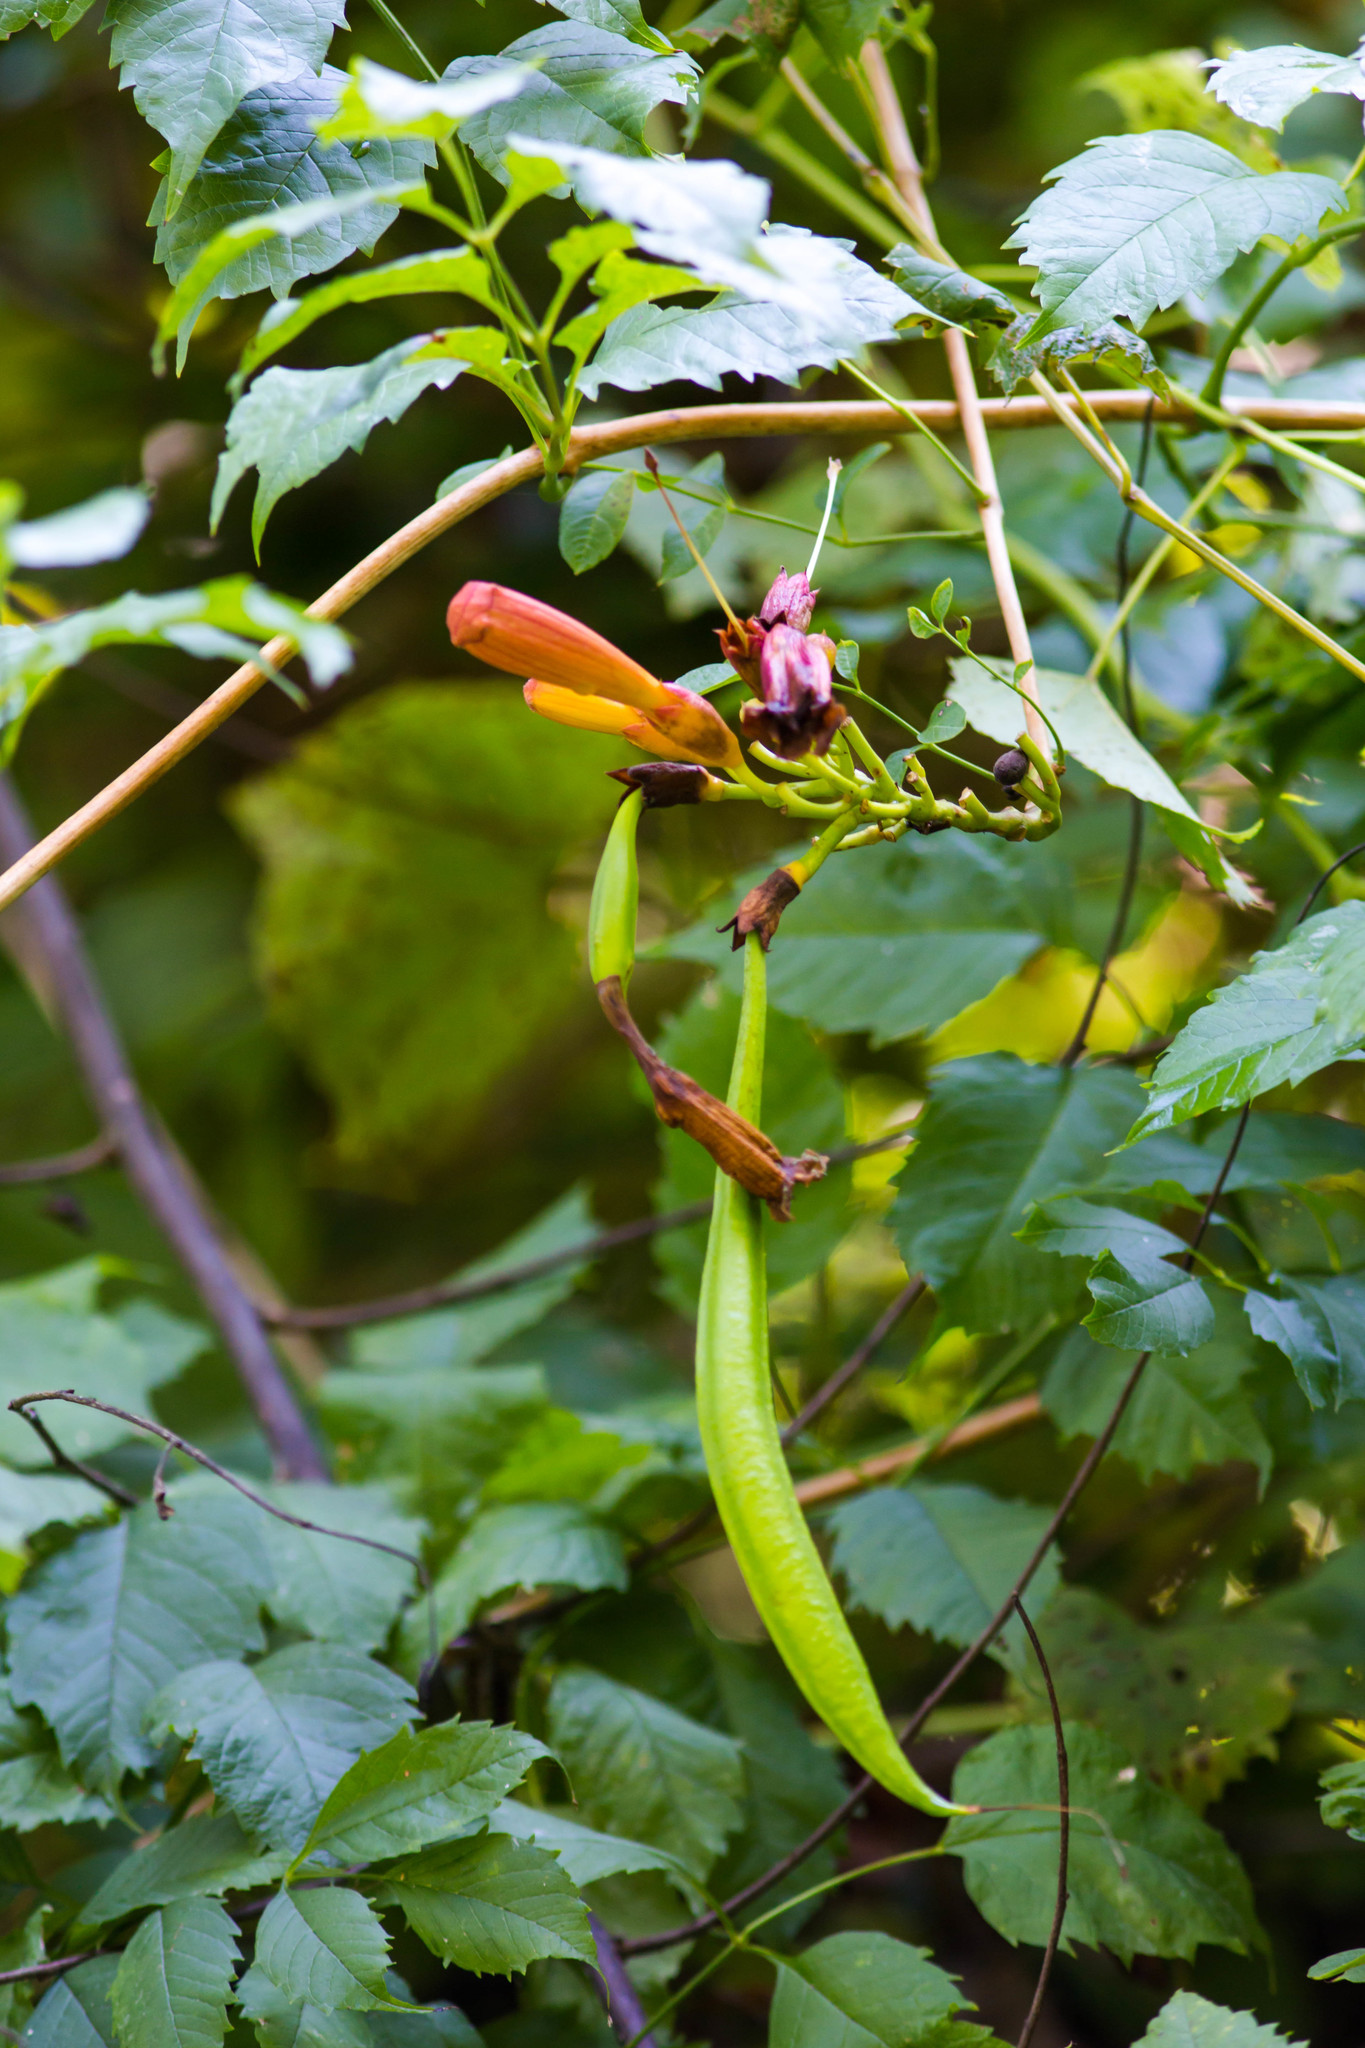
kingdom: Plantae
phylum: Tracheophyta
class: Magnoliopsida
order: Lamiales
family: Bignoniaceae
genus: Campsis
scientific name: Campsis radicans
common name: Trumpet-creeper
